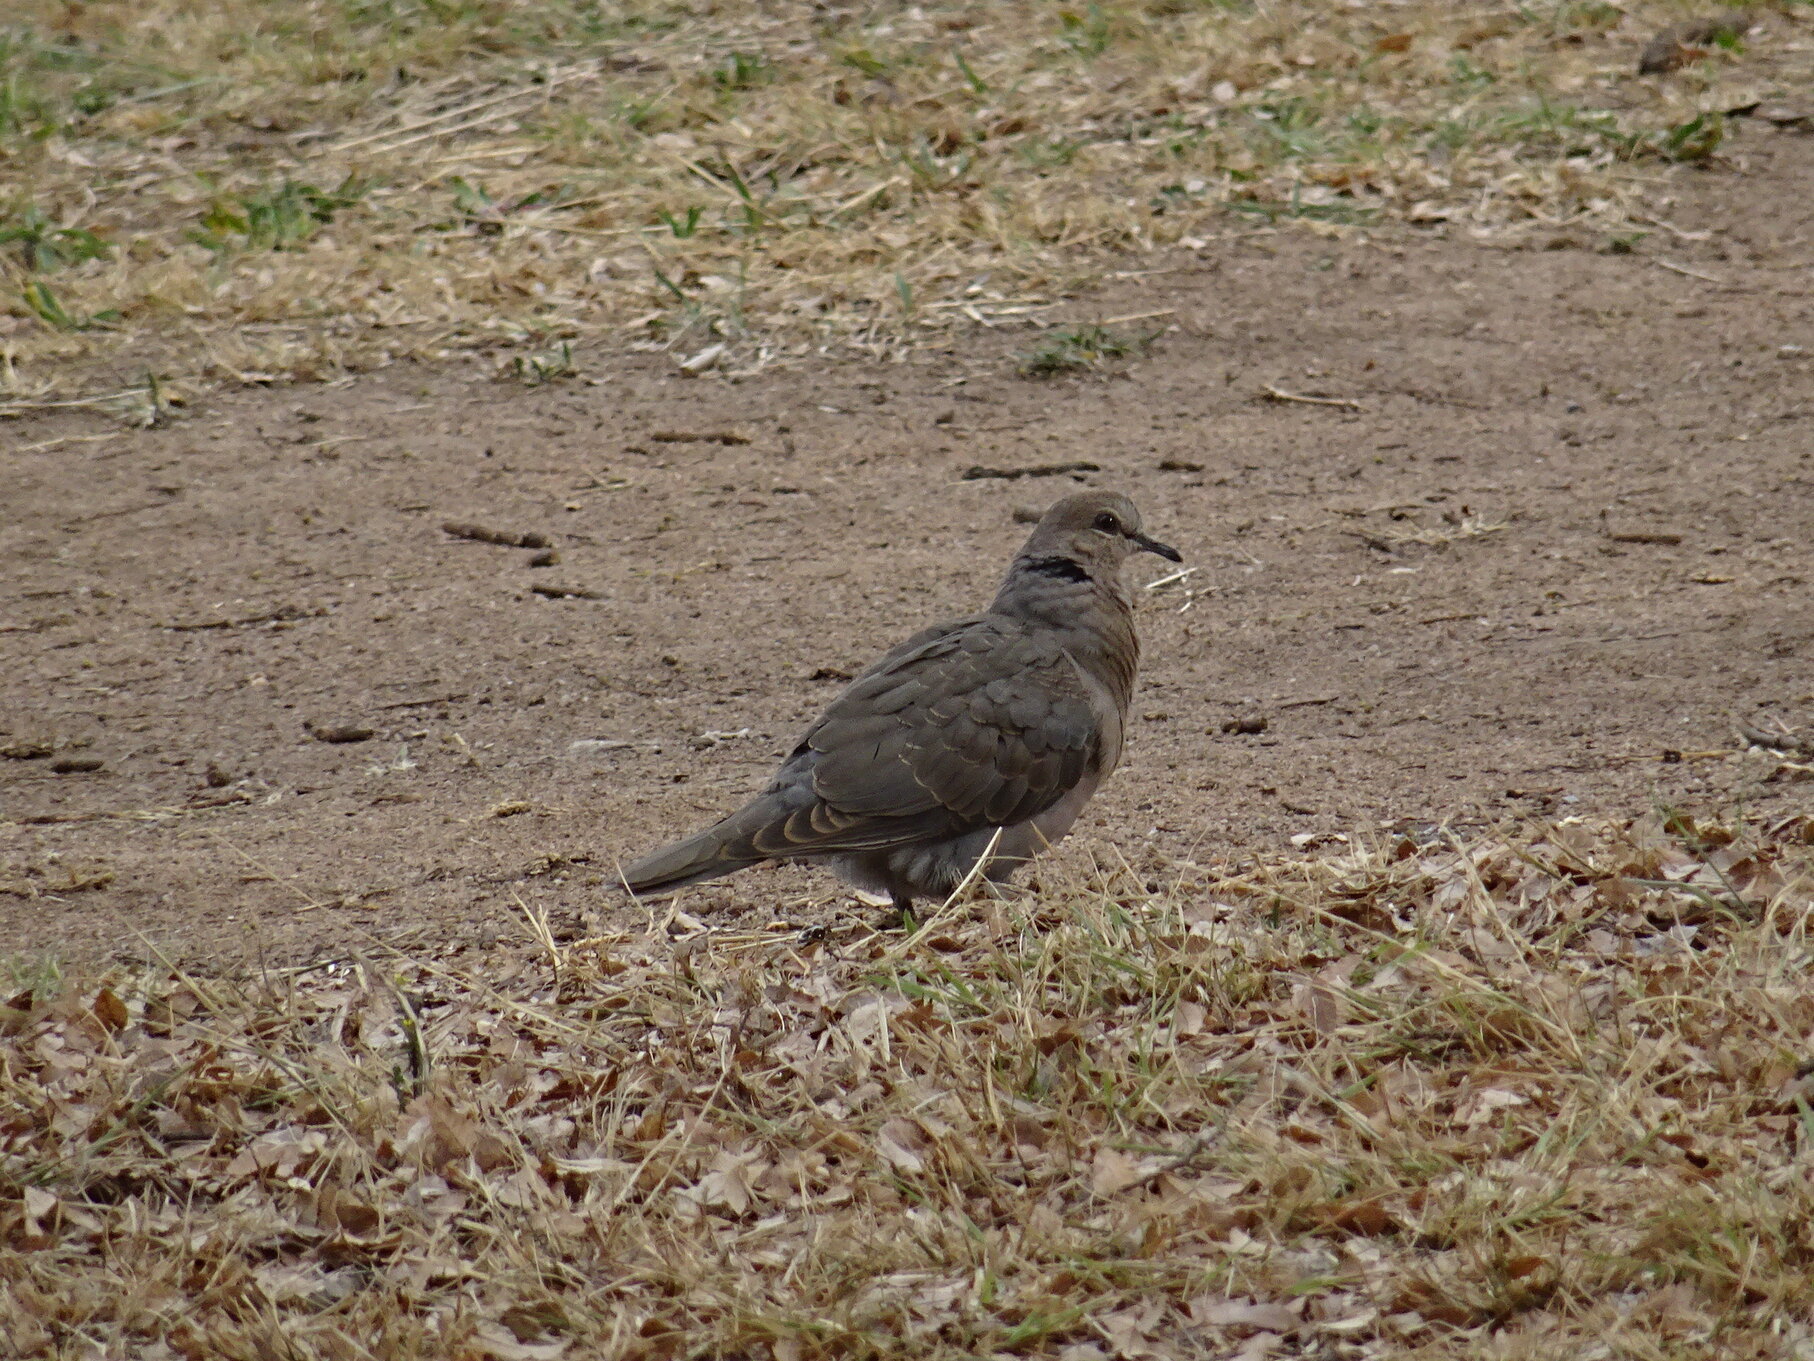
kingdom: Animalia
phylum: Chordata
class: Aves
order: Columbiformes
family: Columbidae
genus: Streptopelia
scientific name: Streptopelia semitorquata
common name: Red-eyed dove
